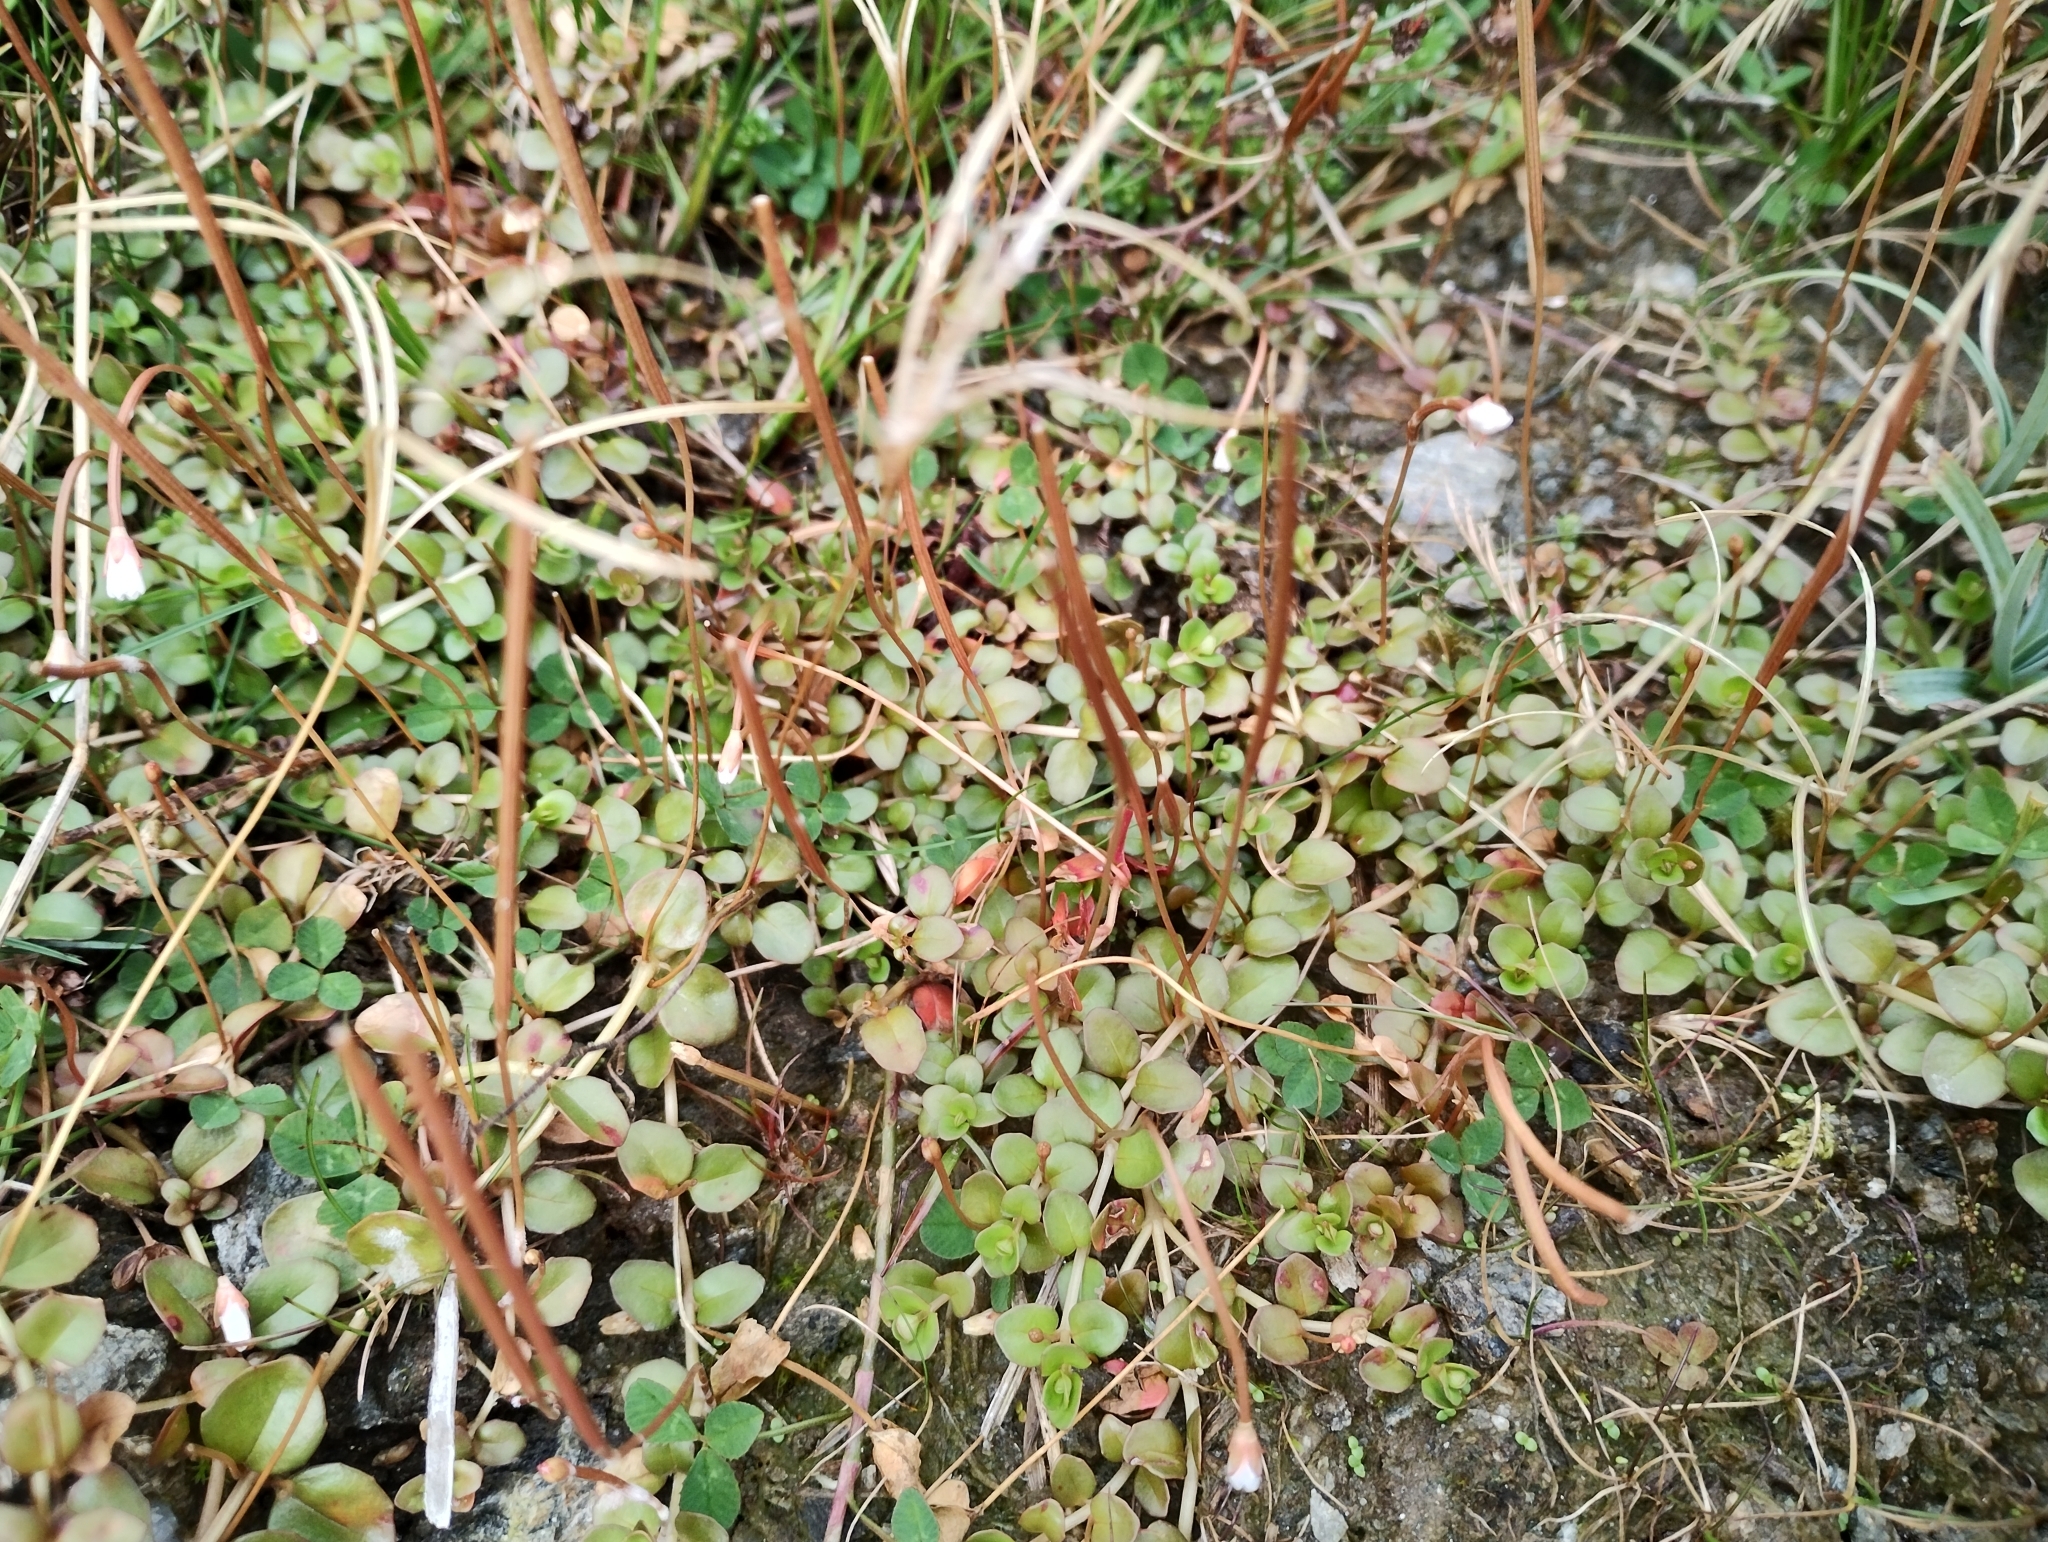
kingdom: Plantae
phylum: Tracheophyta
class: Magnoliopsida
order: Myrtales
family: Onagraceae
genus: Epilobium
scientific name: Epilobium brunnescens
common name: New zealand willowherb
